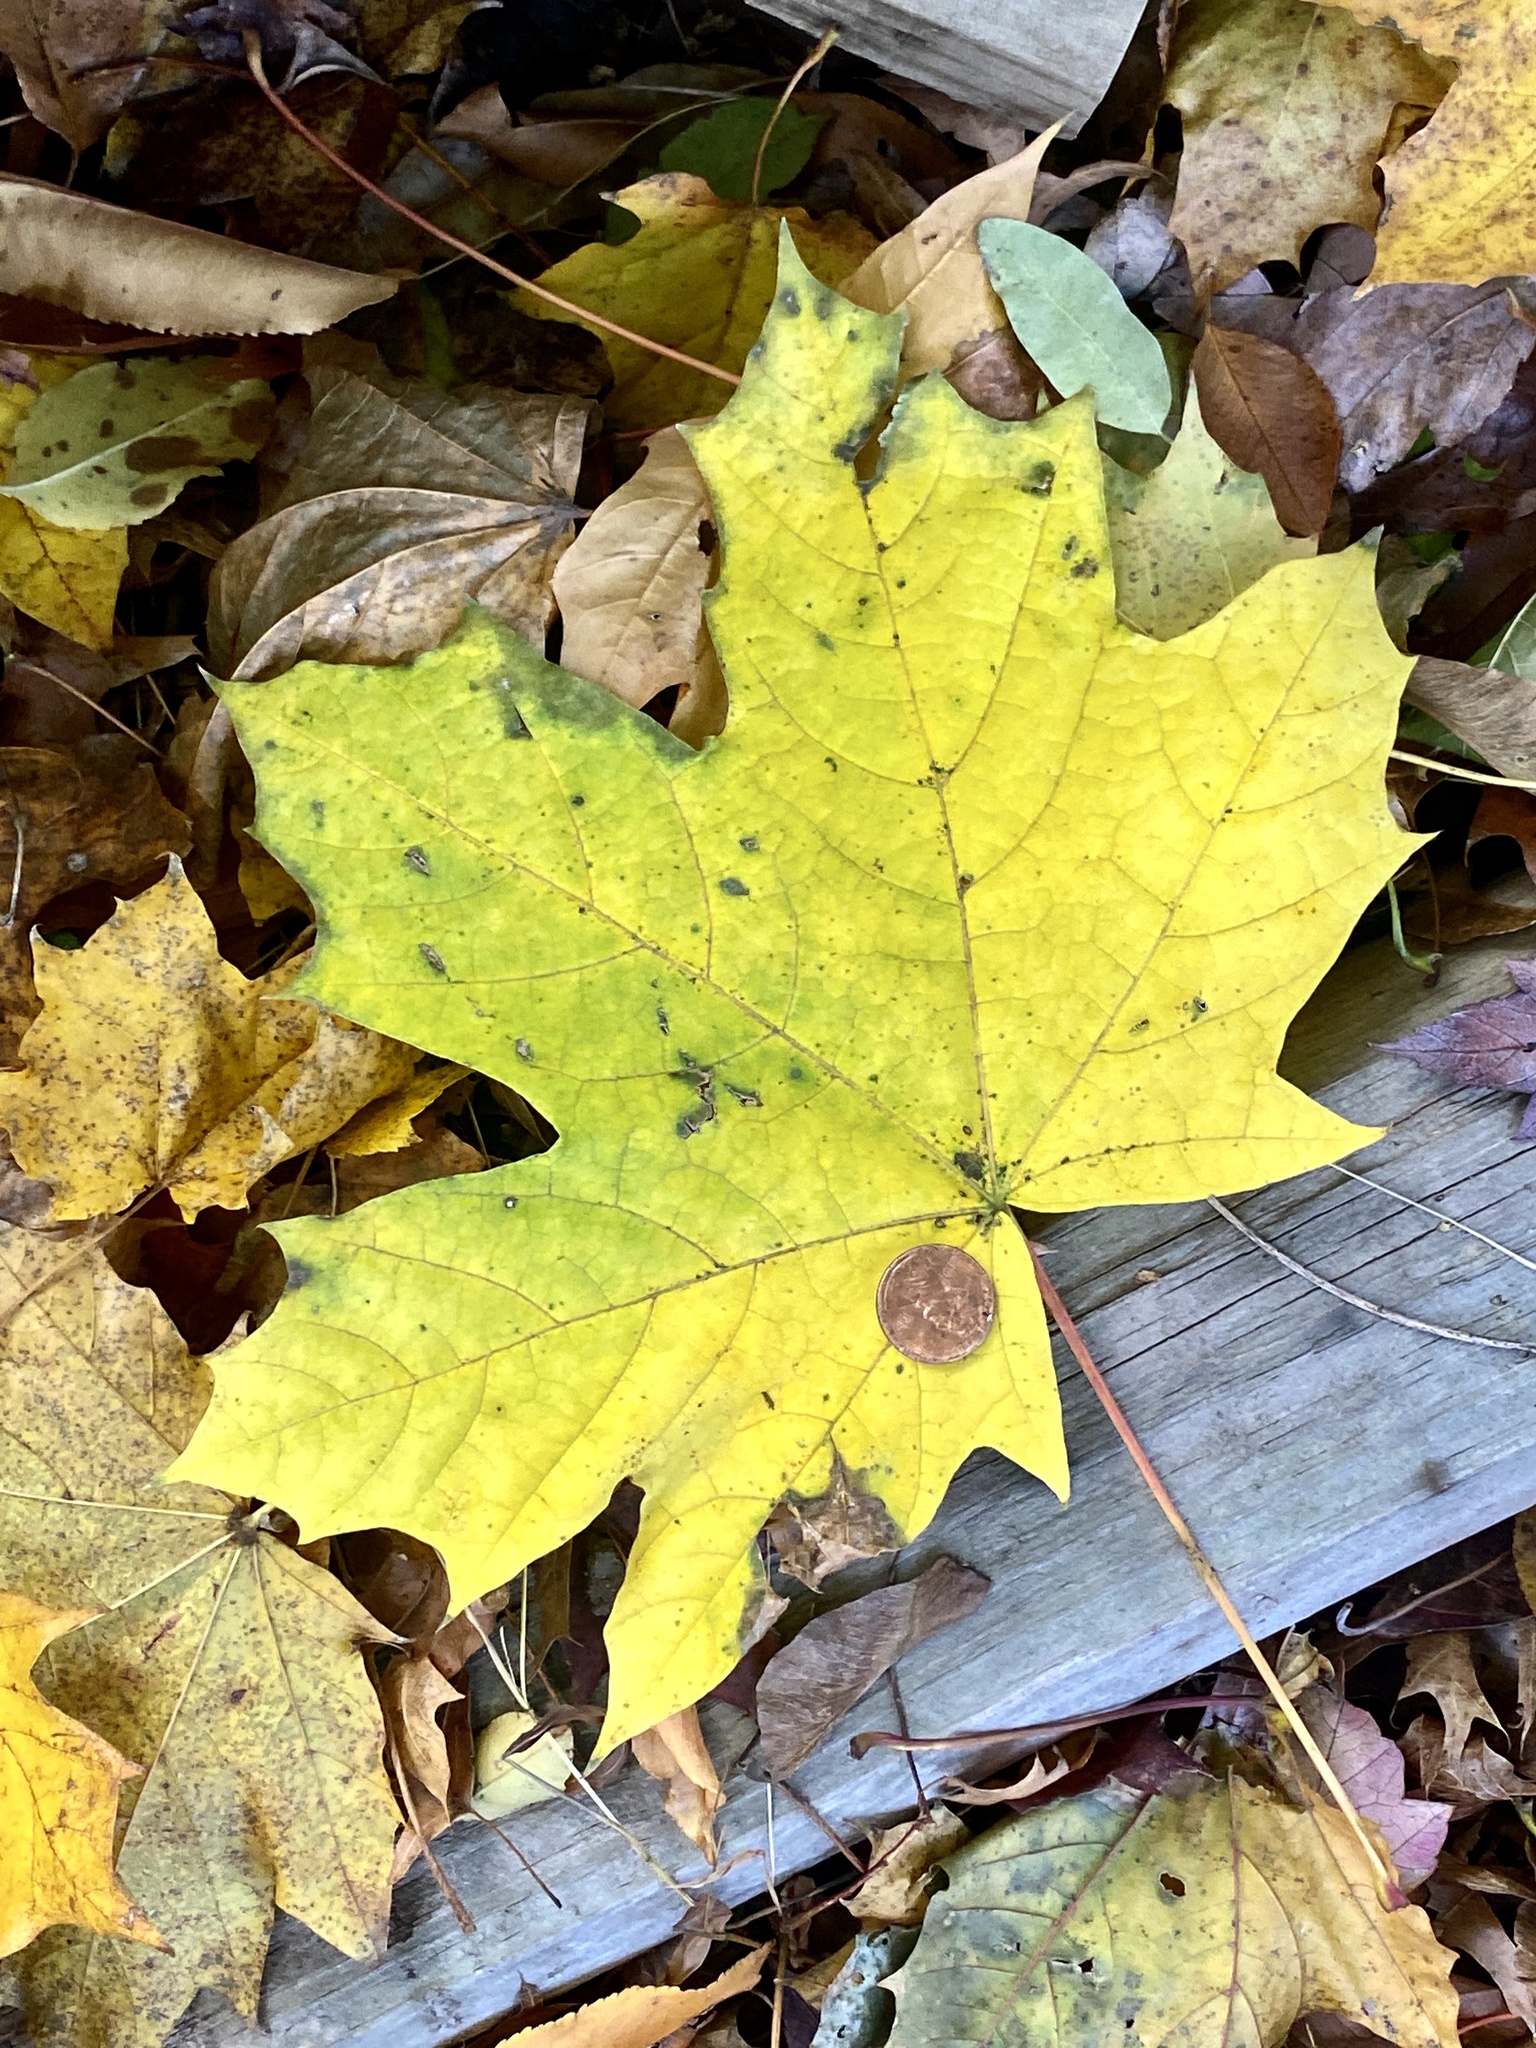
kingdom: Plantae
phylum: Tracheophyta
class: Magnoliopsida
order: Sapindales
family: Sapindaceae
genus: Acer
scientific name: Acer platanoides
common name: Norway maple
